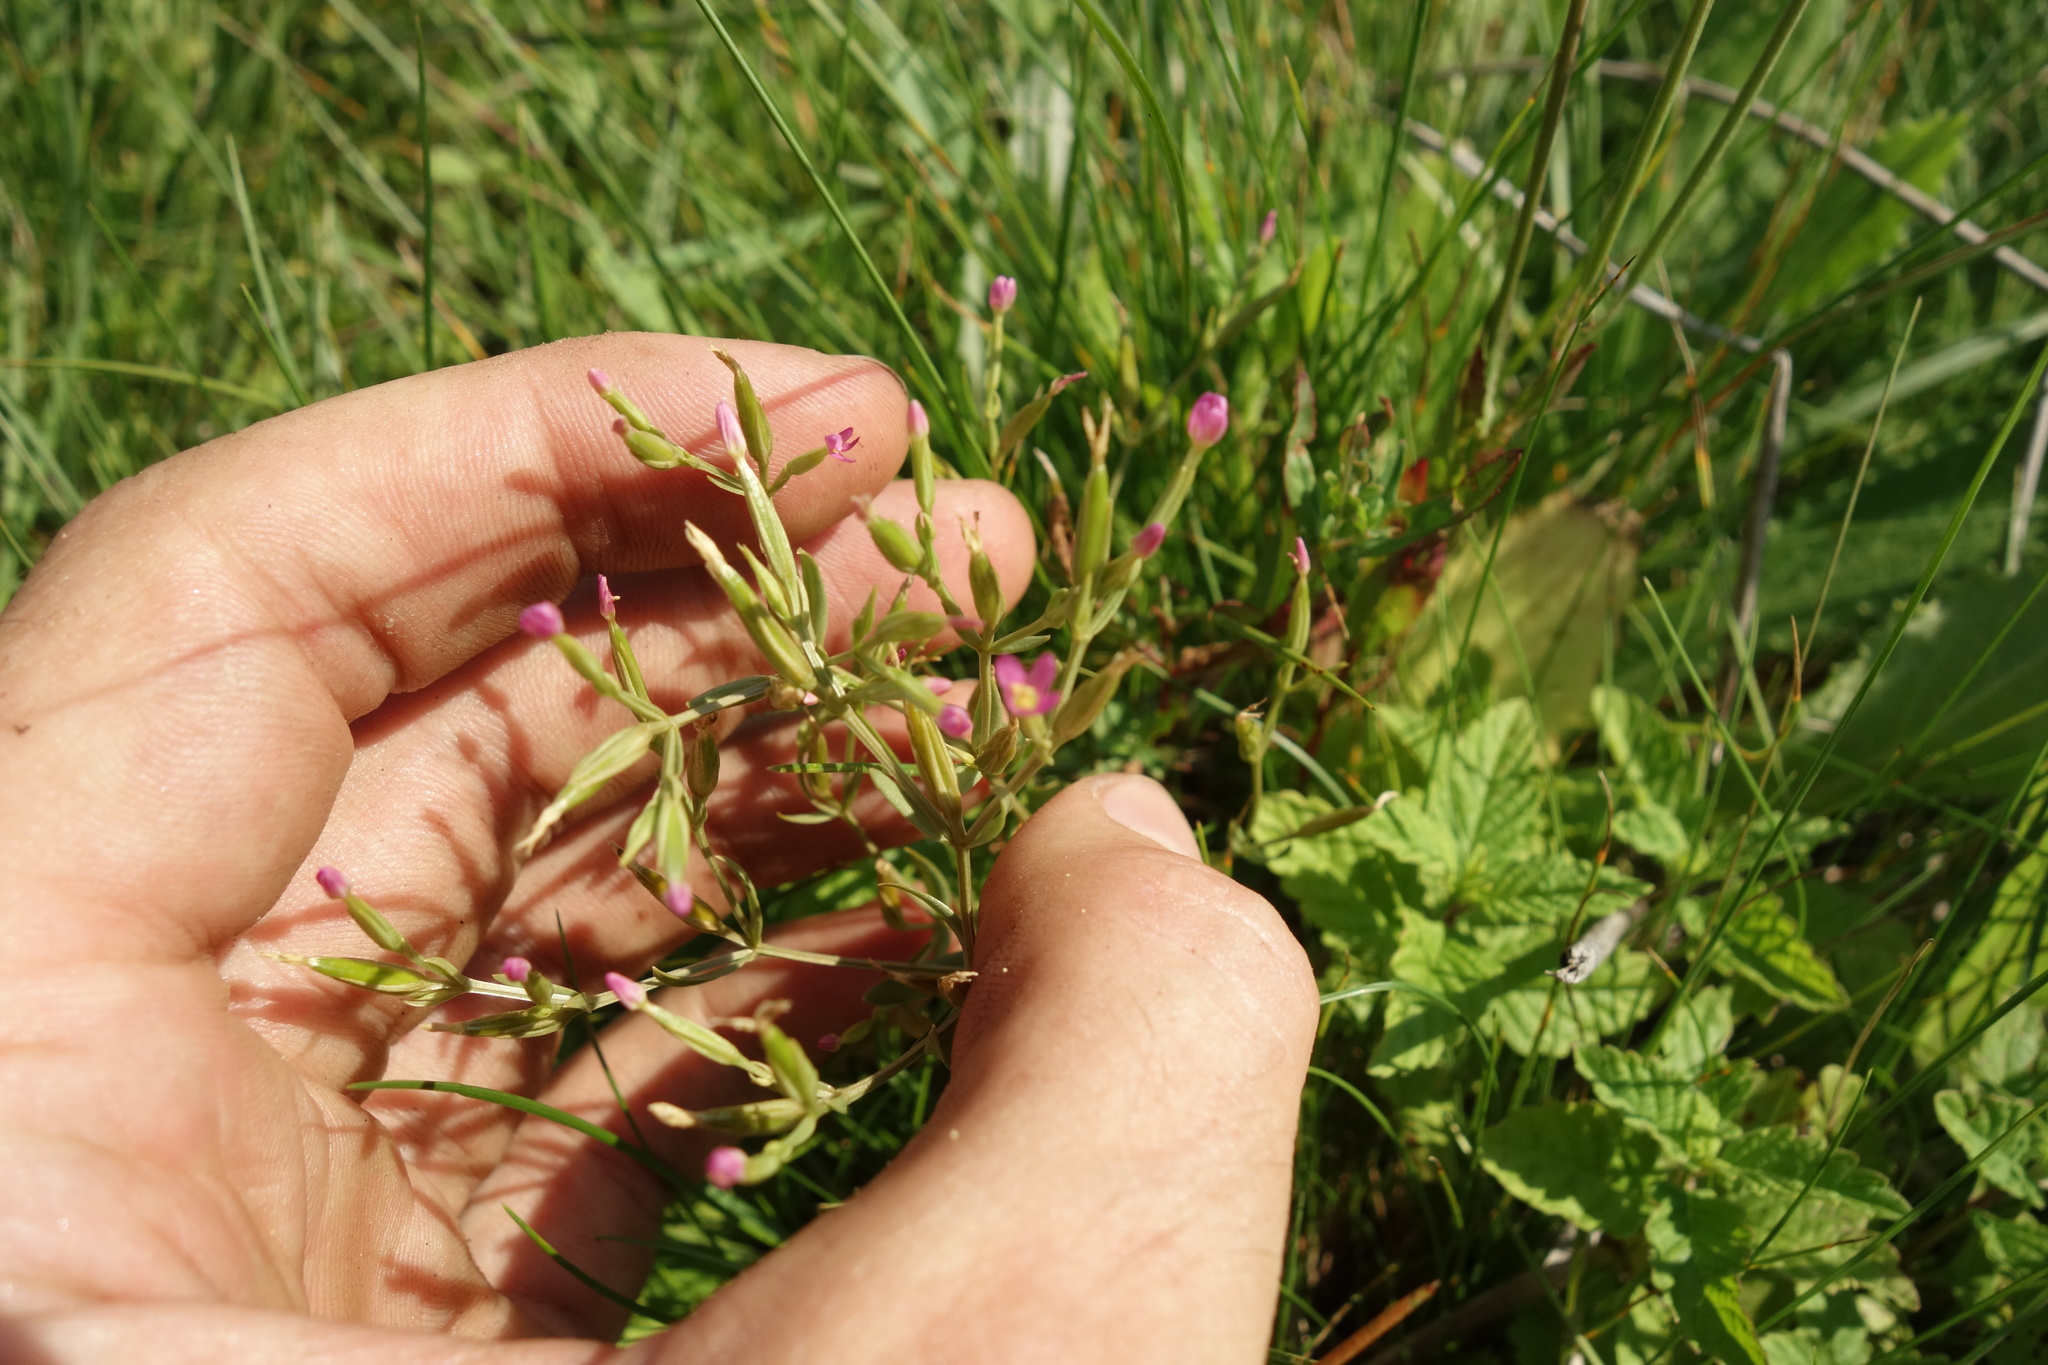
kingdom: Plantae
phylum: Tracheophyta
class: Magnoliopsida
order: Gentianales
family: Gentianaceae
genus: Centaurium
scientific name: Centaurium pulchellum
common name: Lesser centaury
